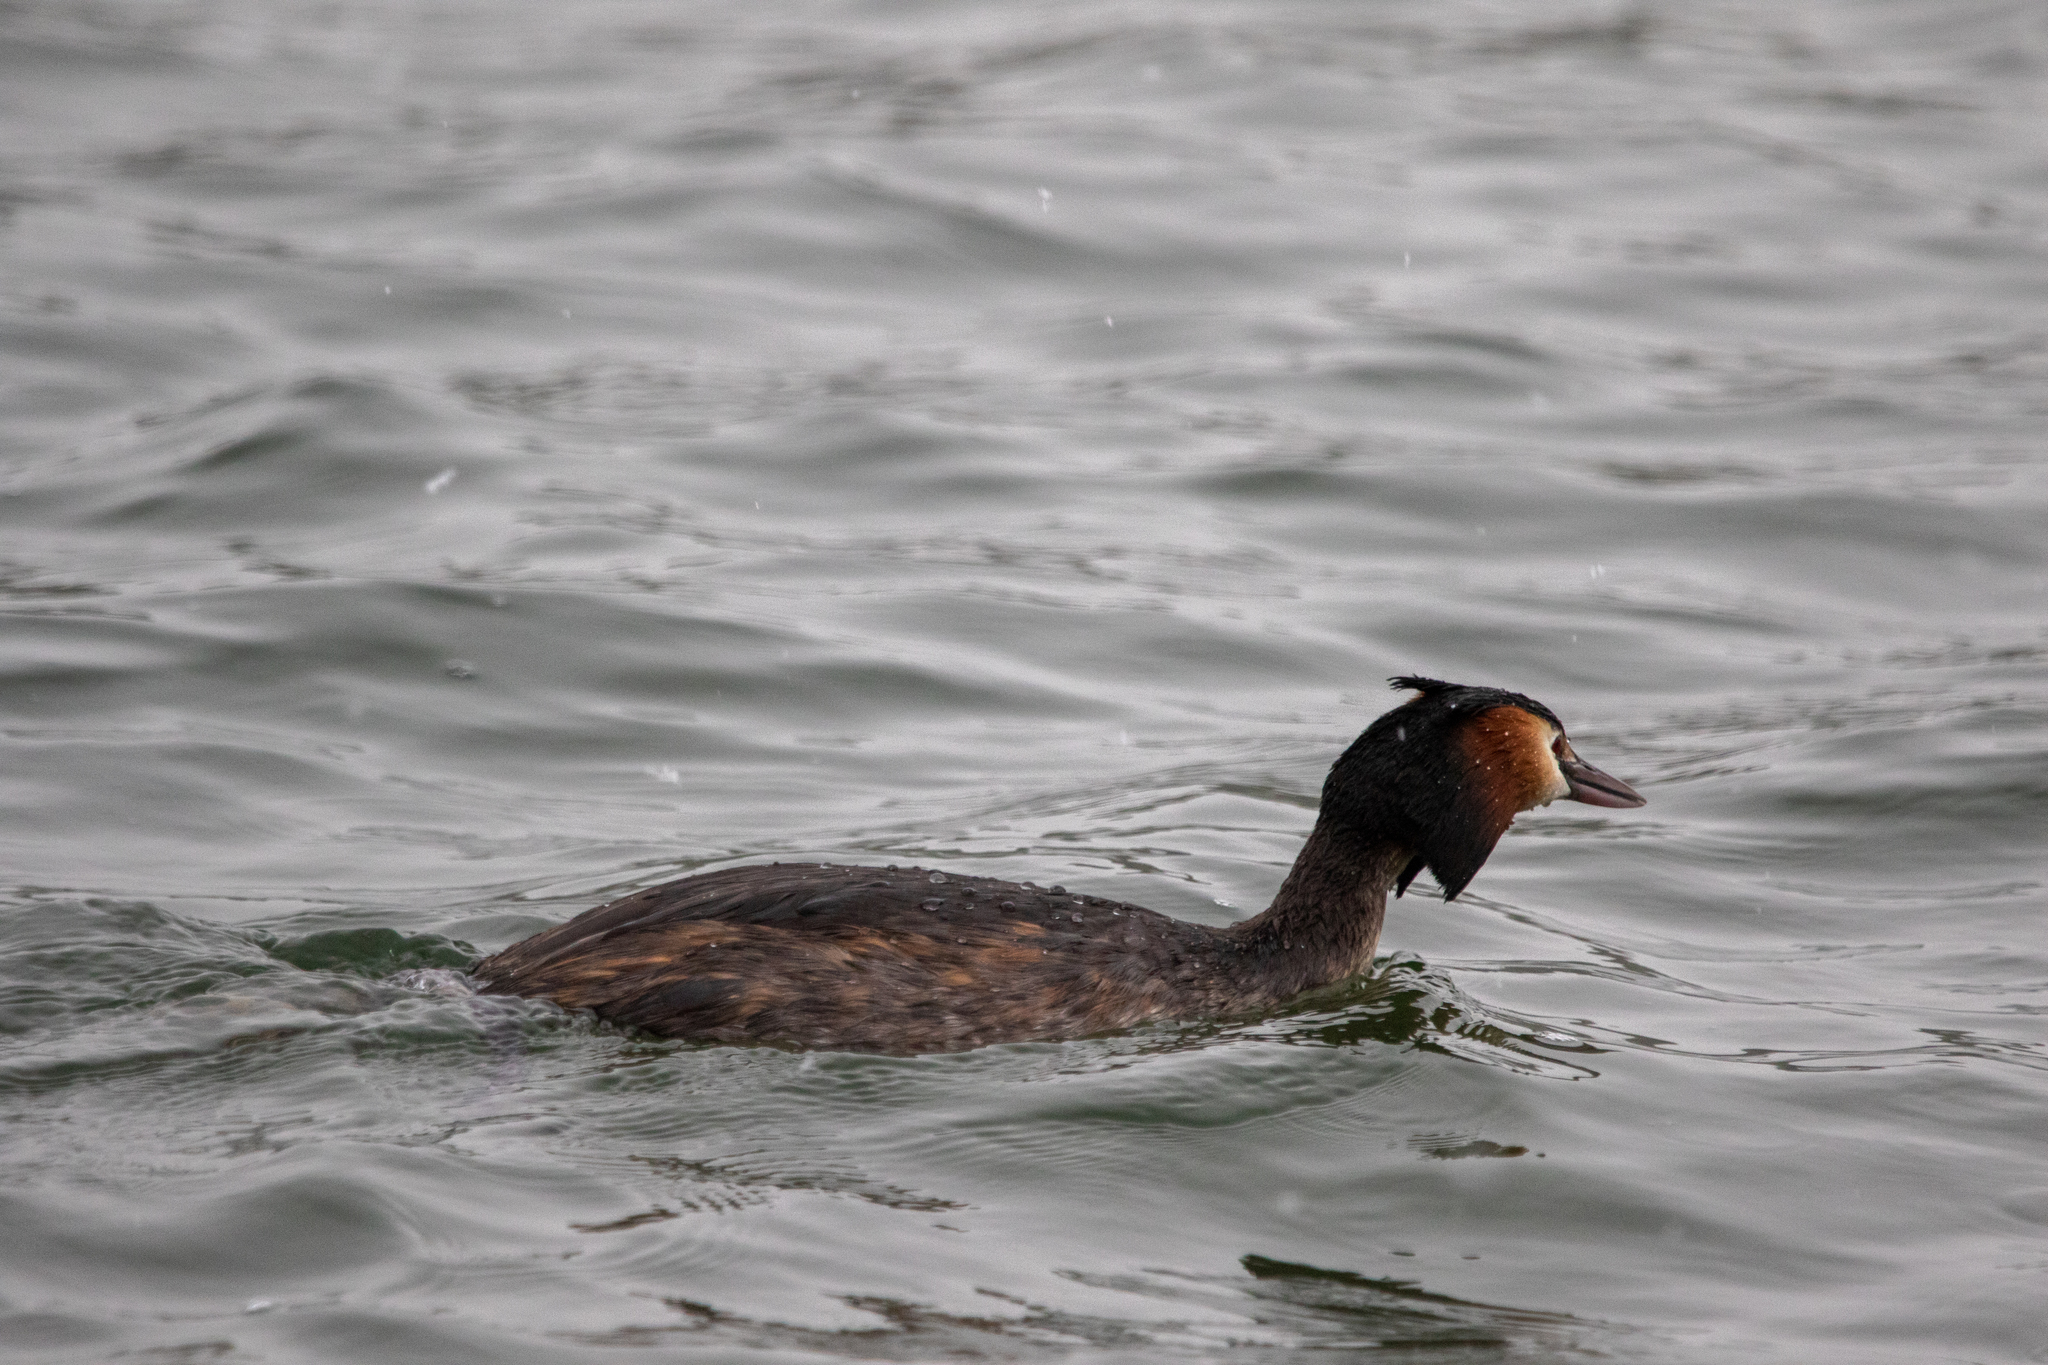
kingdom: Animalia
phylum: Chordata
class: Aves
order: Podicipediformes
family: Podicipedidae
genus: Podiceps
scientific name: Podiceps cristatus
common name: Great crested grebe
